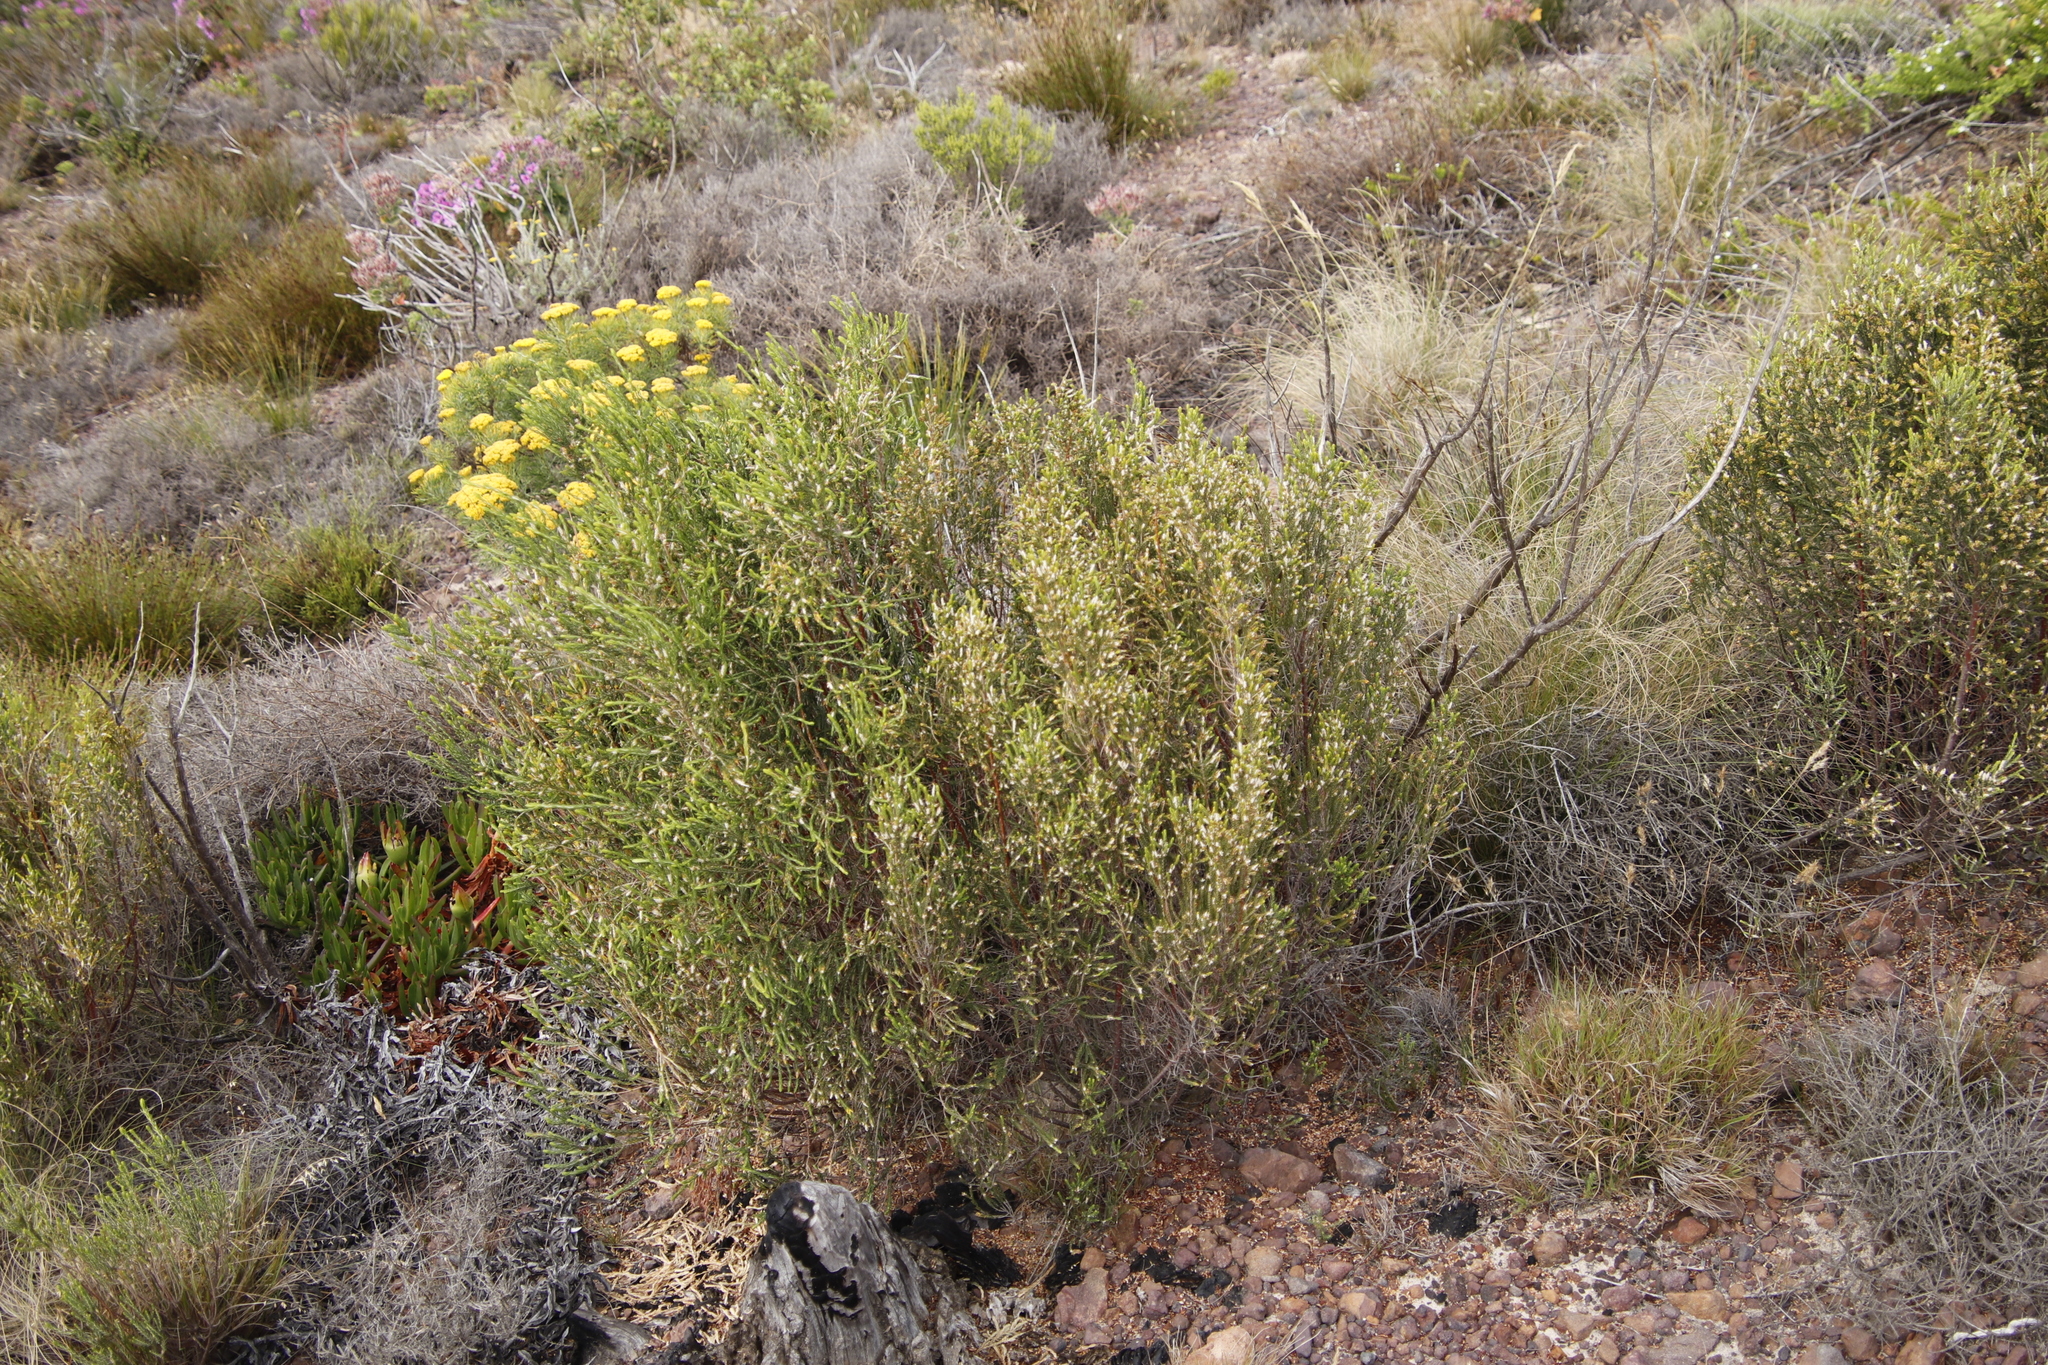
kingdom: Plantae
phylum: Tracheophyta
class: Magnoliopsida
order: Malvales
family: Thymelaeaceae
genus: Passerina
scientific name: Passerina corymbosa
